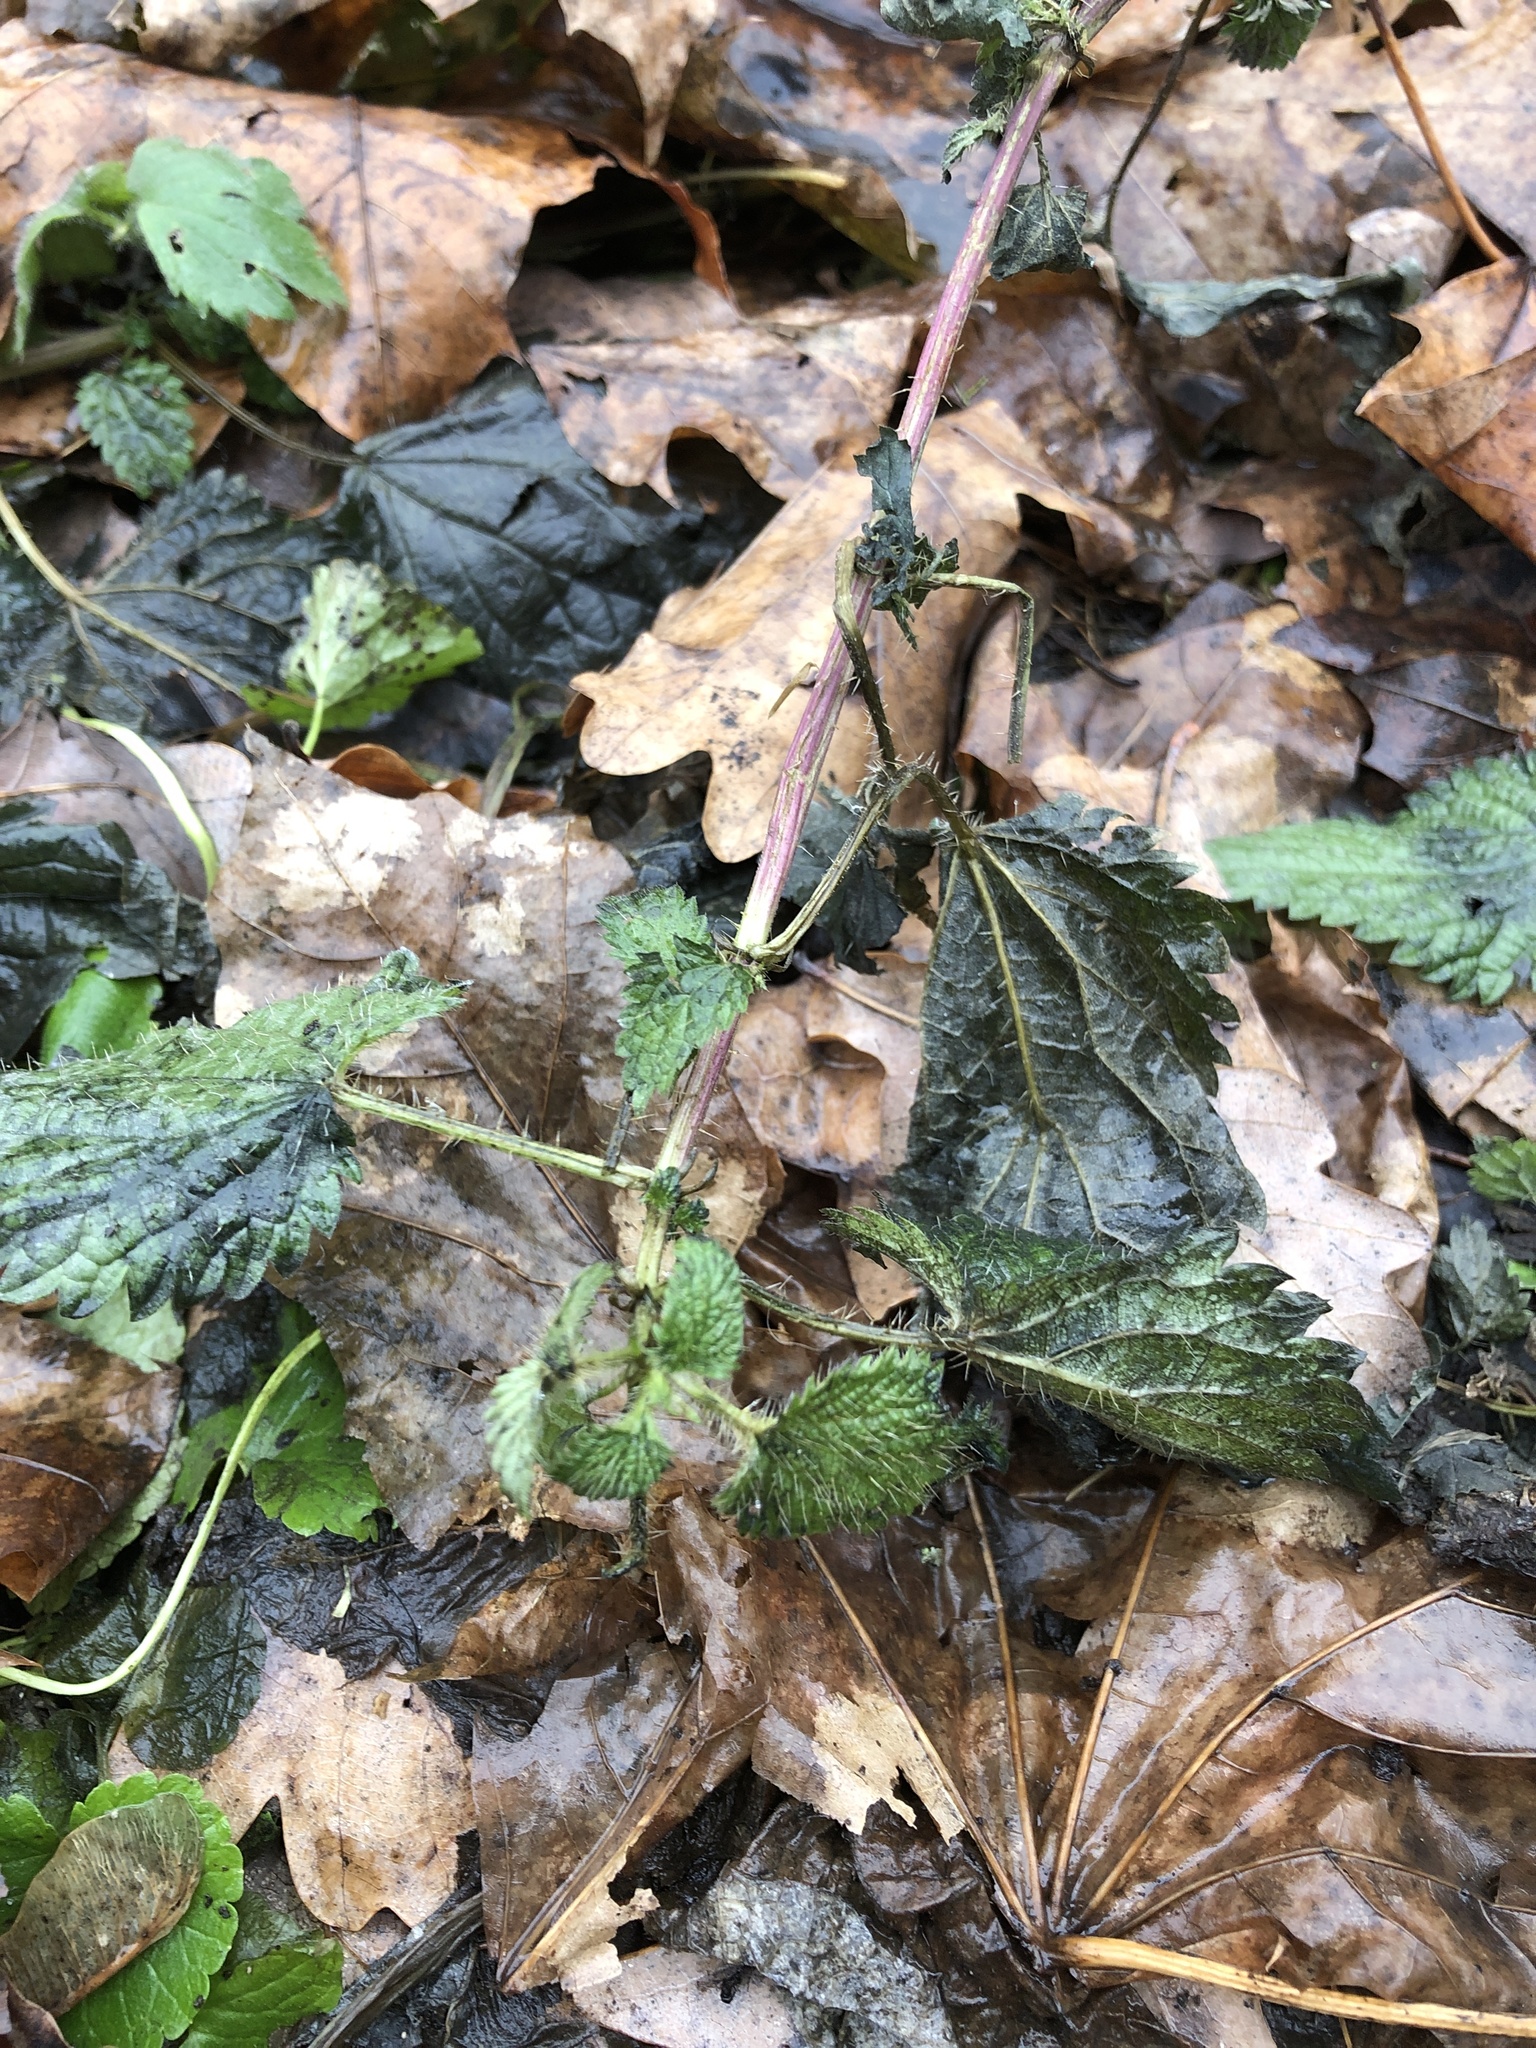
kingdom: Plantae
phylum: Tracheophyta
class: Magnoliopsida
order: Rosales
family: Urticaceae
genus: Urtica
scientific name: Urtica dioica
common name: Common nettle
